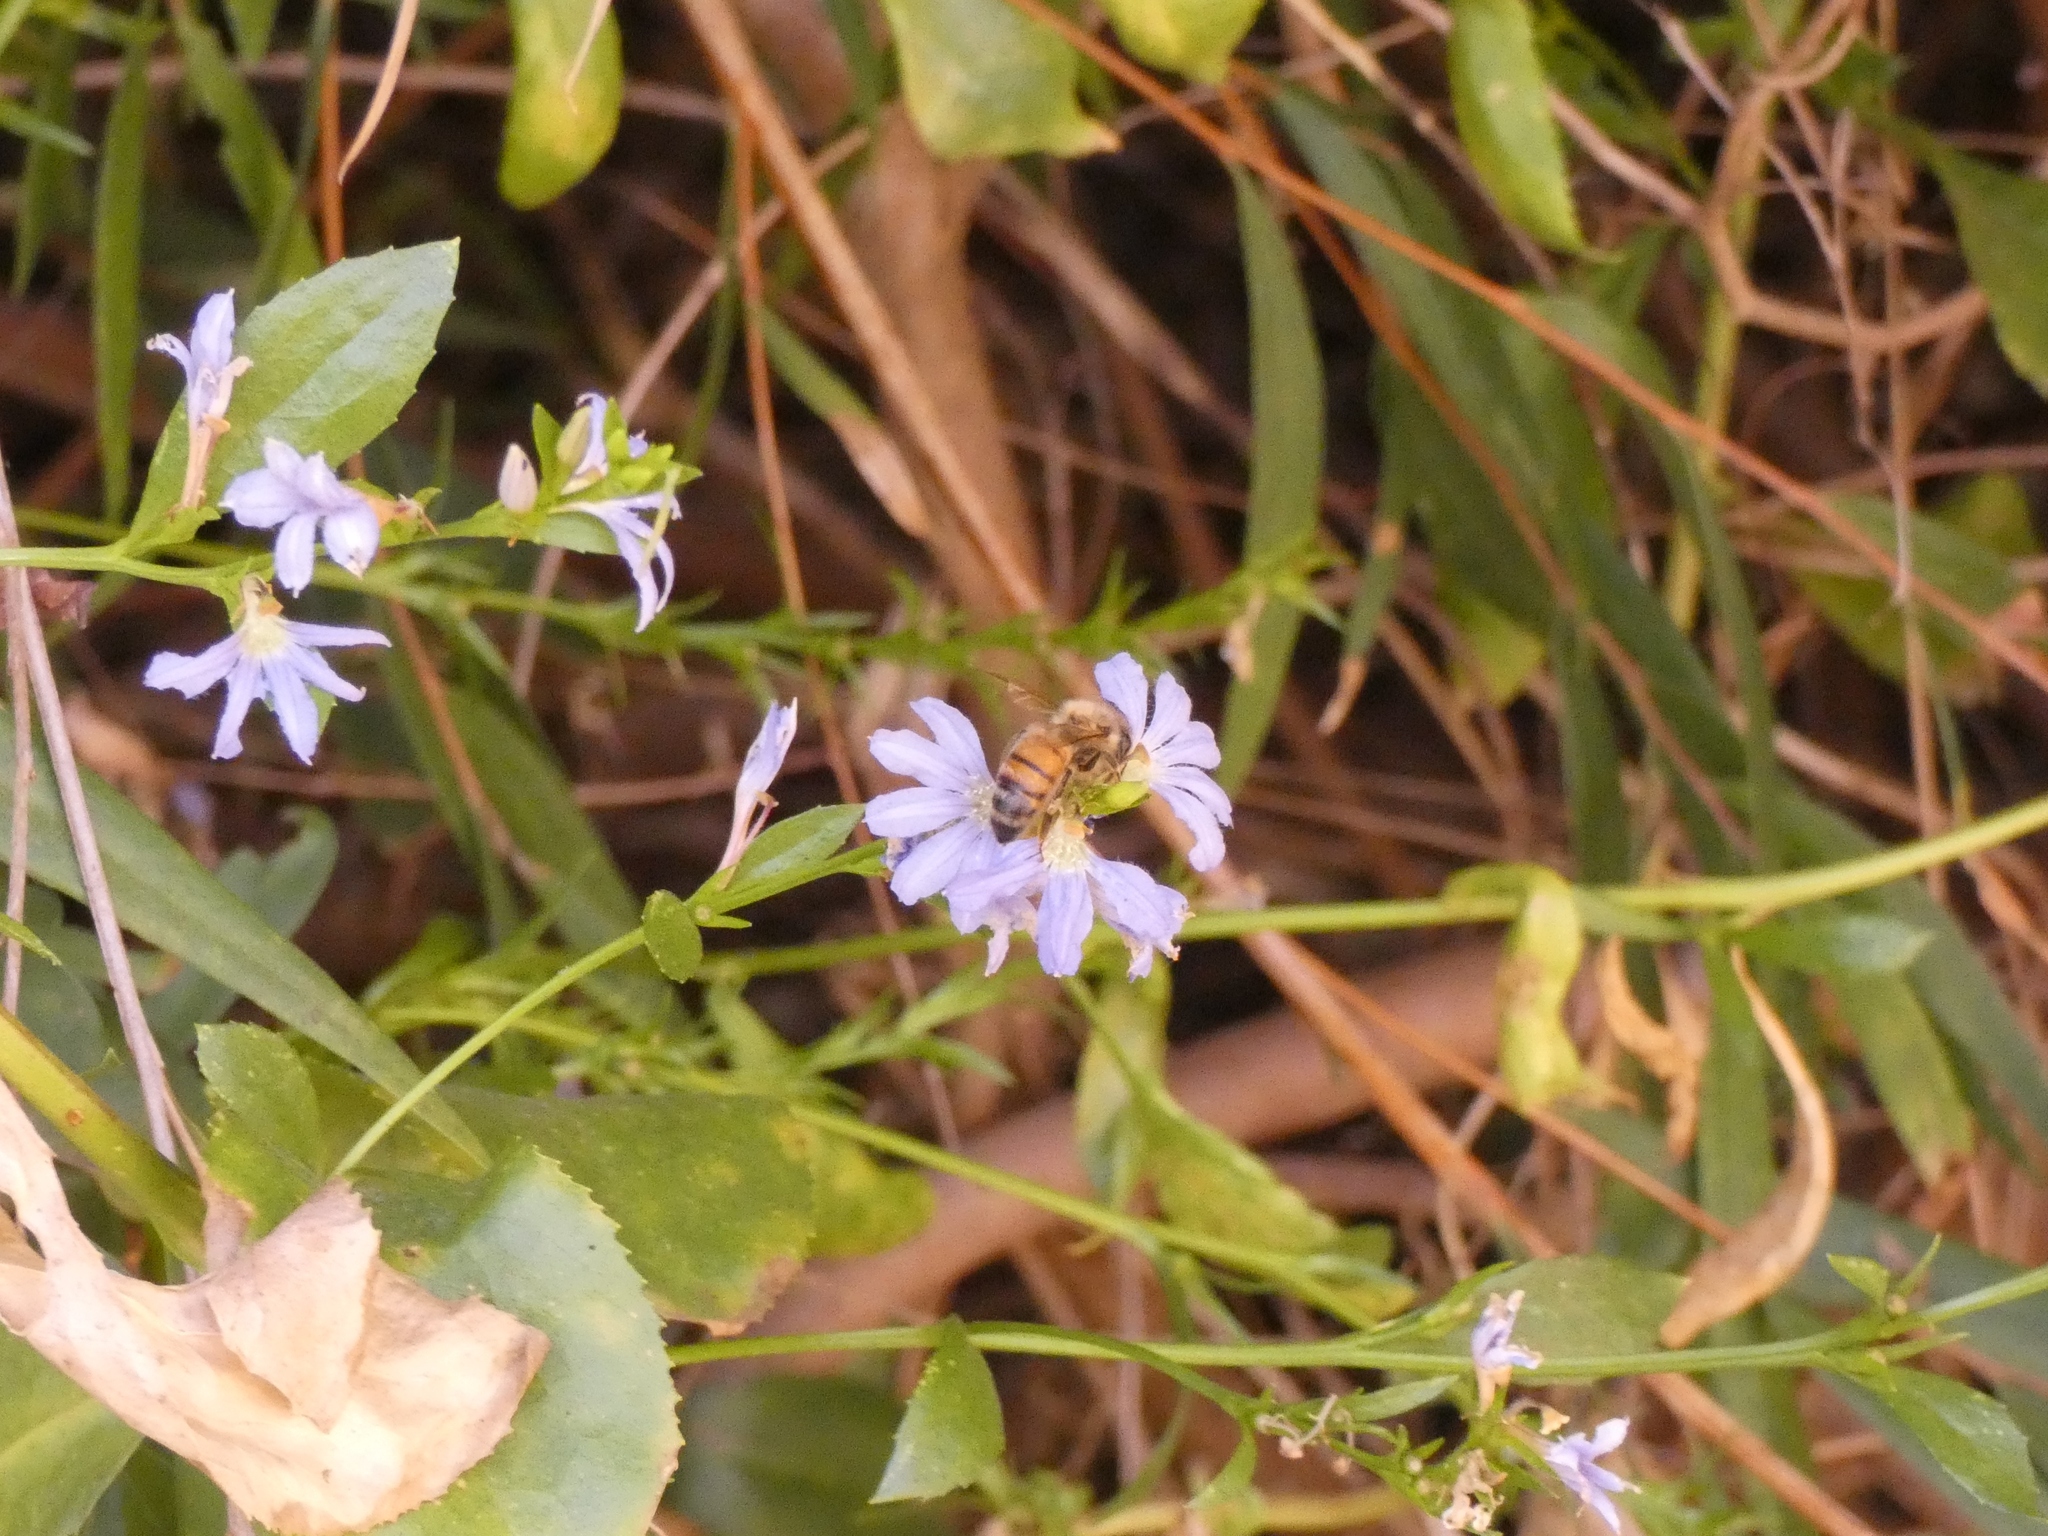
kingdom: Animalia
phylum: Arthropoda
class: Insecta
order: Hymenoptera
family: Apidae
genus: Apis
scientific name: Apis mellifera
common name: Honey bee
